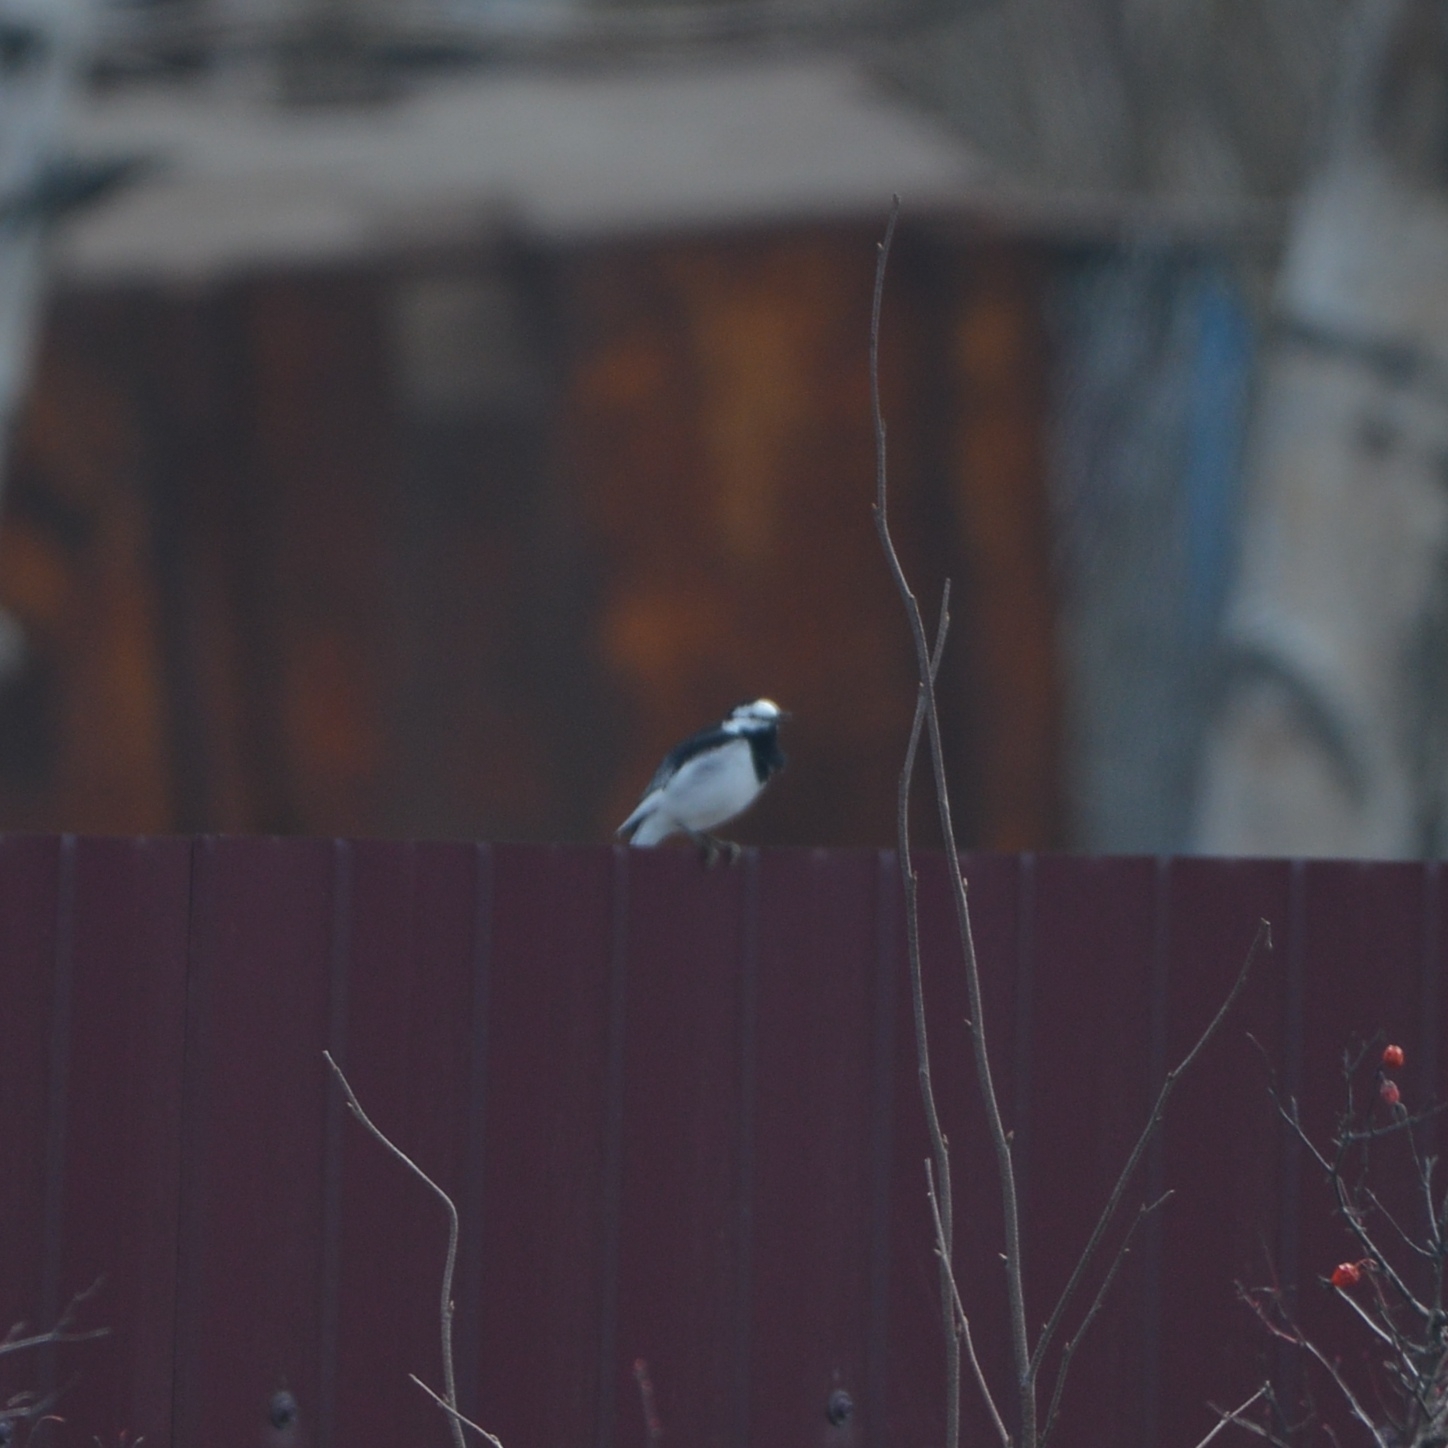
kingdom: Animalia
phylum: Chordata
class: Aves
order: Passeriformes
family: Motacillidae
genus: Motacilla
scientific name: Motacilla alba
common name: White wagtail
